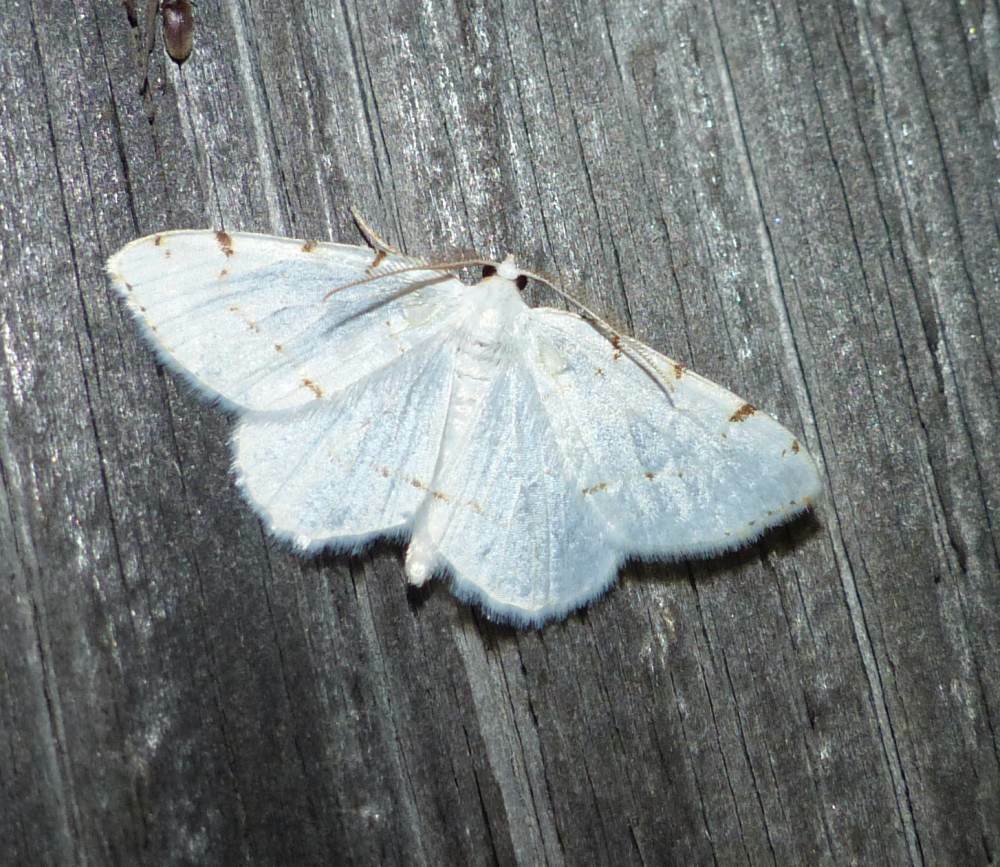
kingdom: Animalia
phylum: Arthropoda
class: Insecta
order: Lepidoptera
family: Geometridae
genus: Macaria
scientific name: Macaria pustularia
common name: Lesser maple spanworm moth
